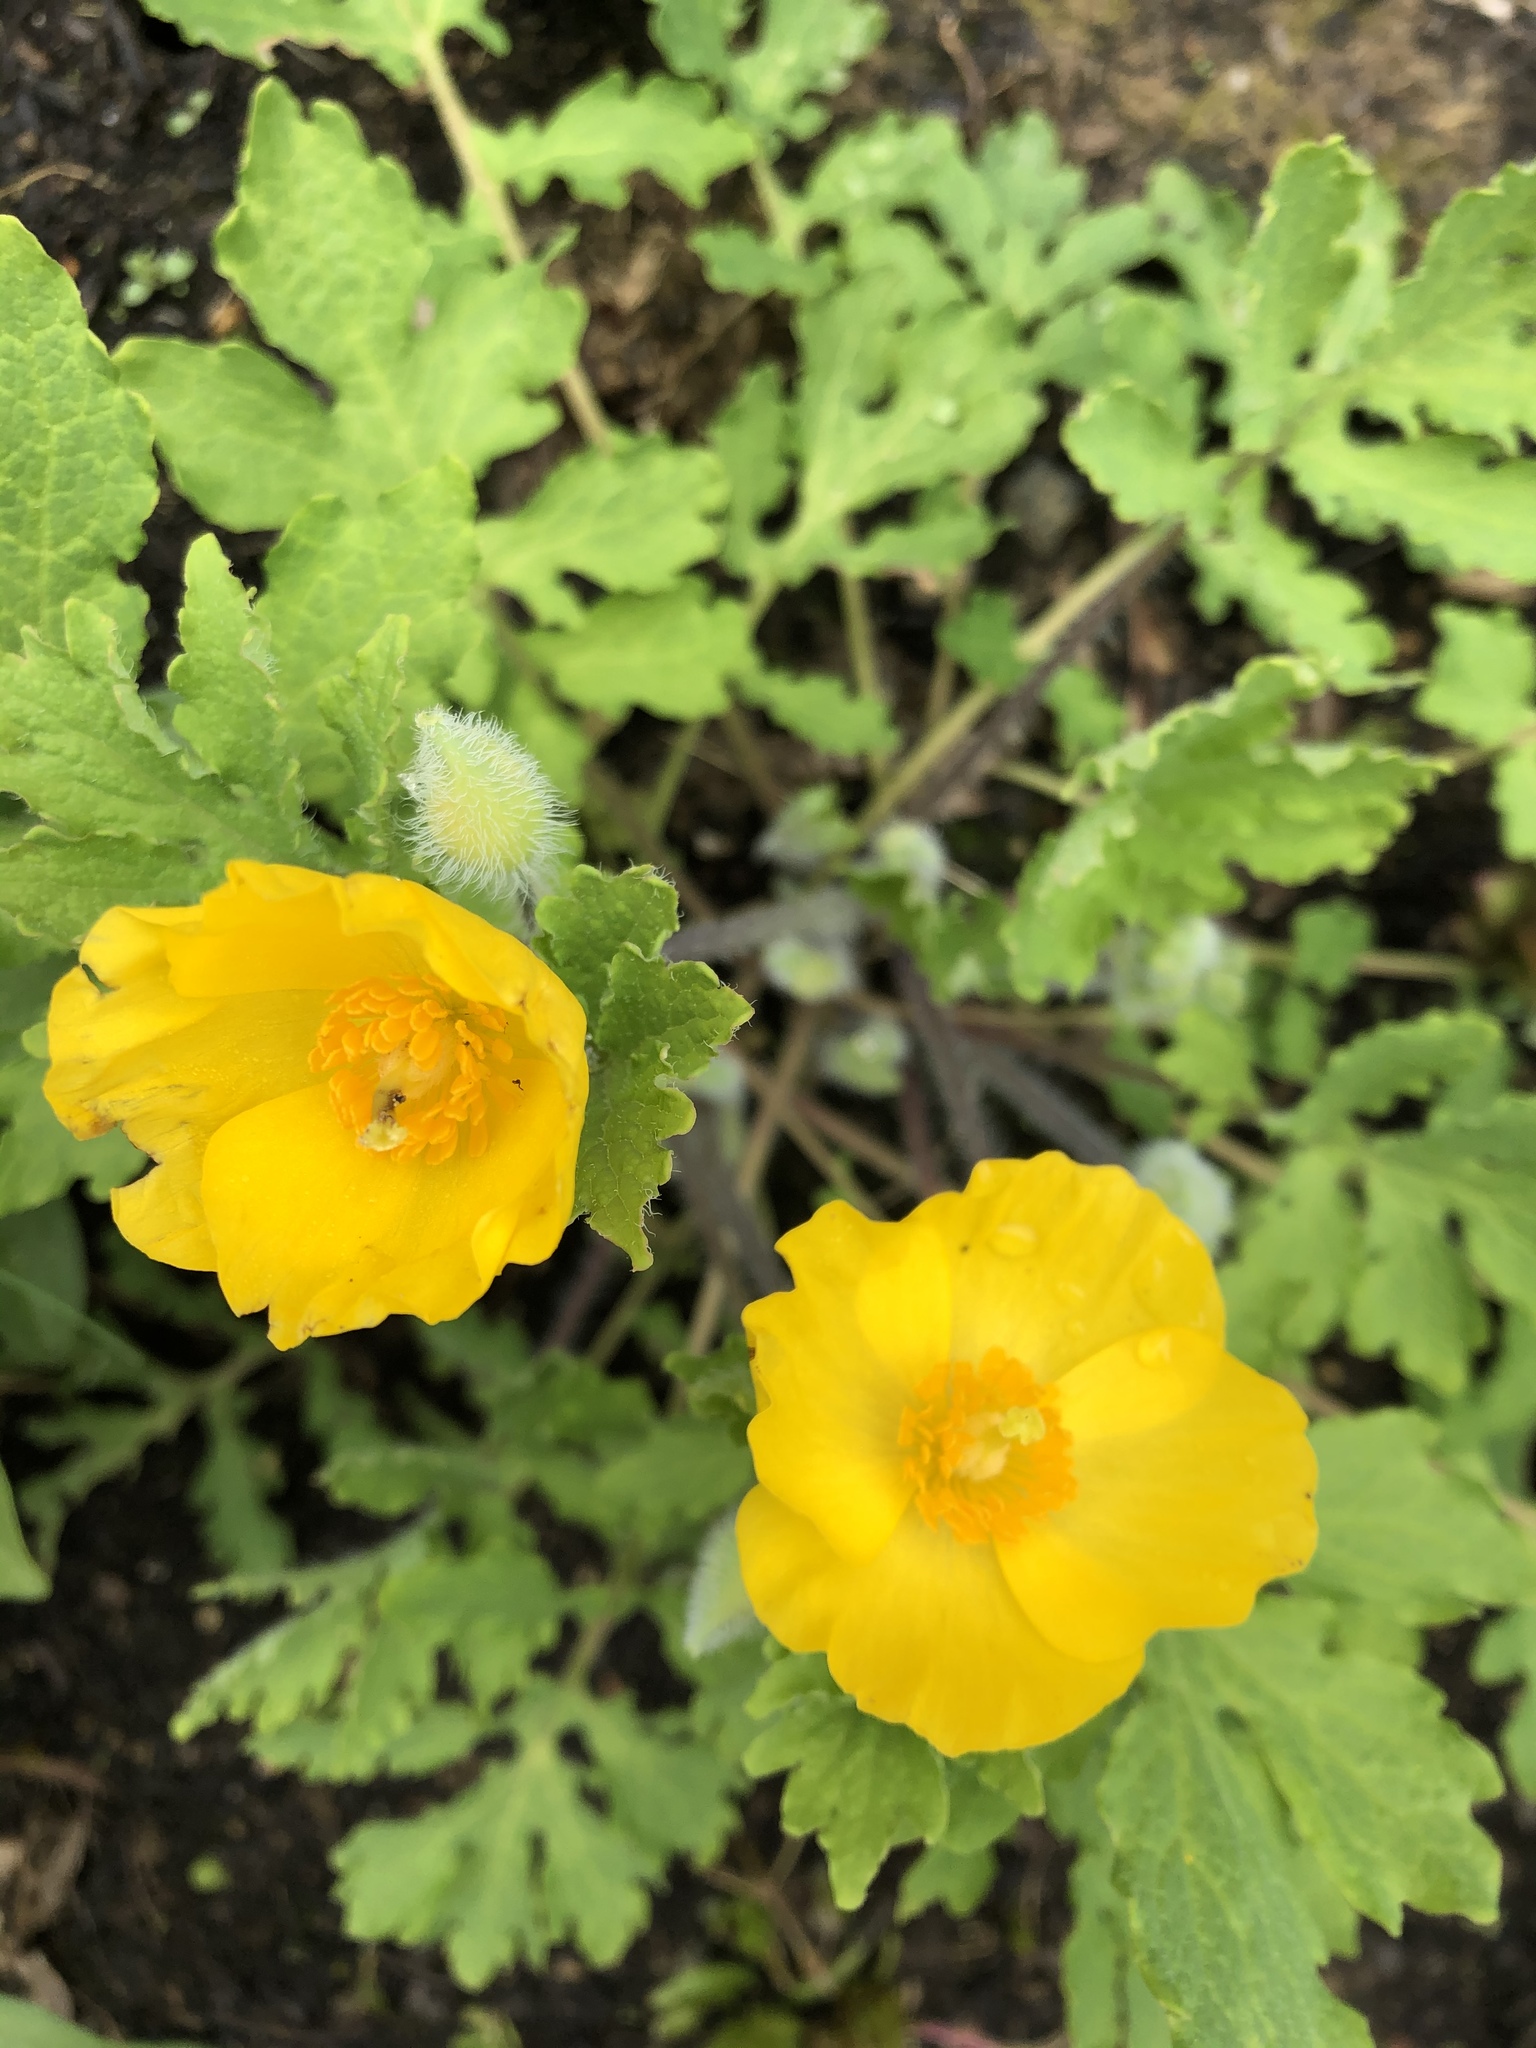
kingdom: Plantae
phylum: Tracheophyta
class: Magnoliopsida
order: Ranunculales
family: Papaveraceae
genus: Stylophorum
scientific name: Stylophorum diphyllum
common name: Celandine poppy
